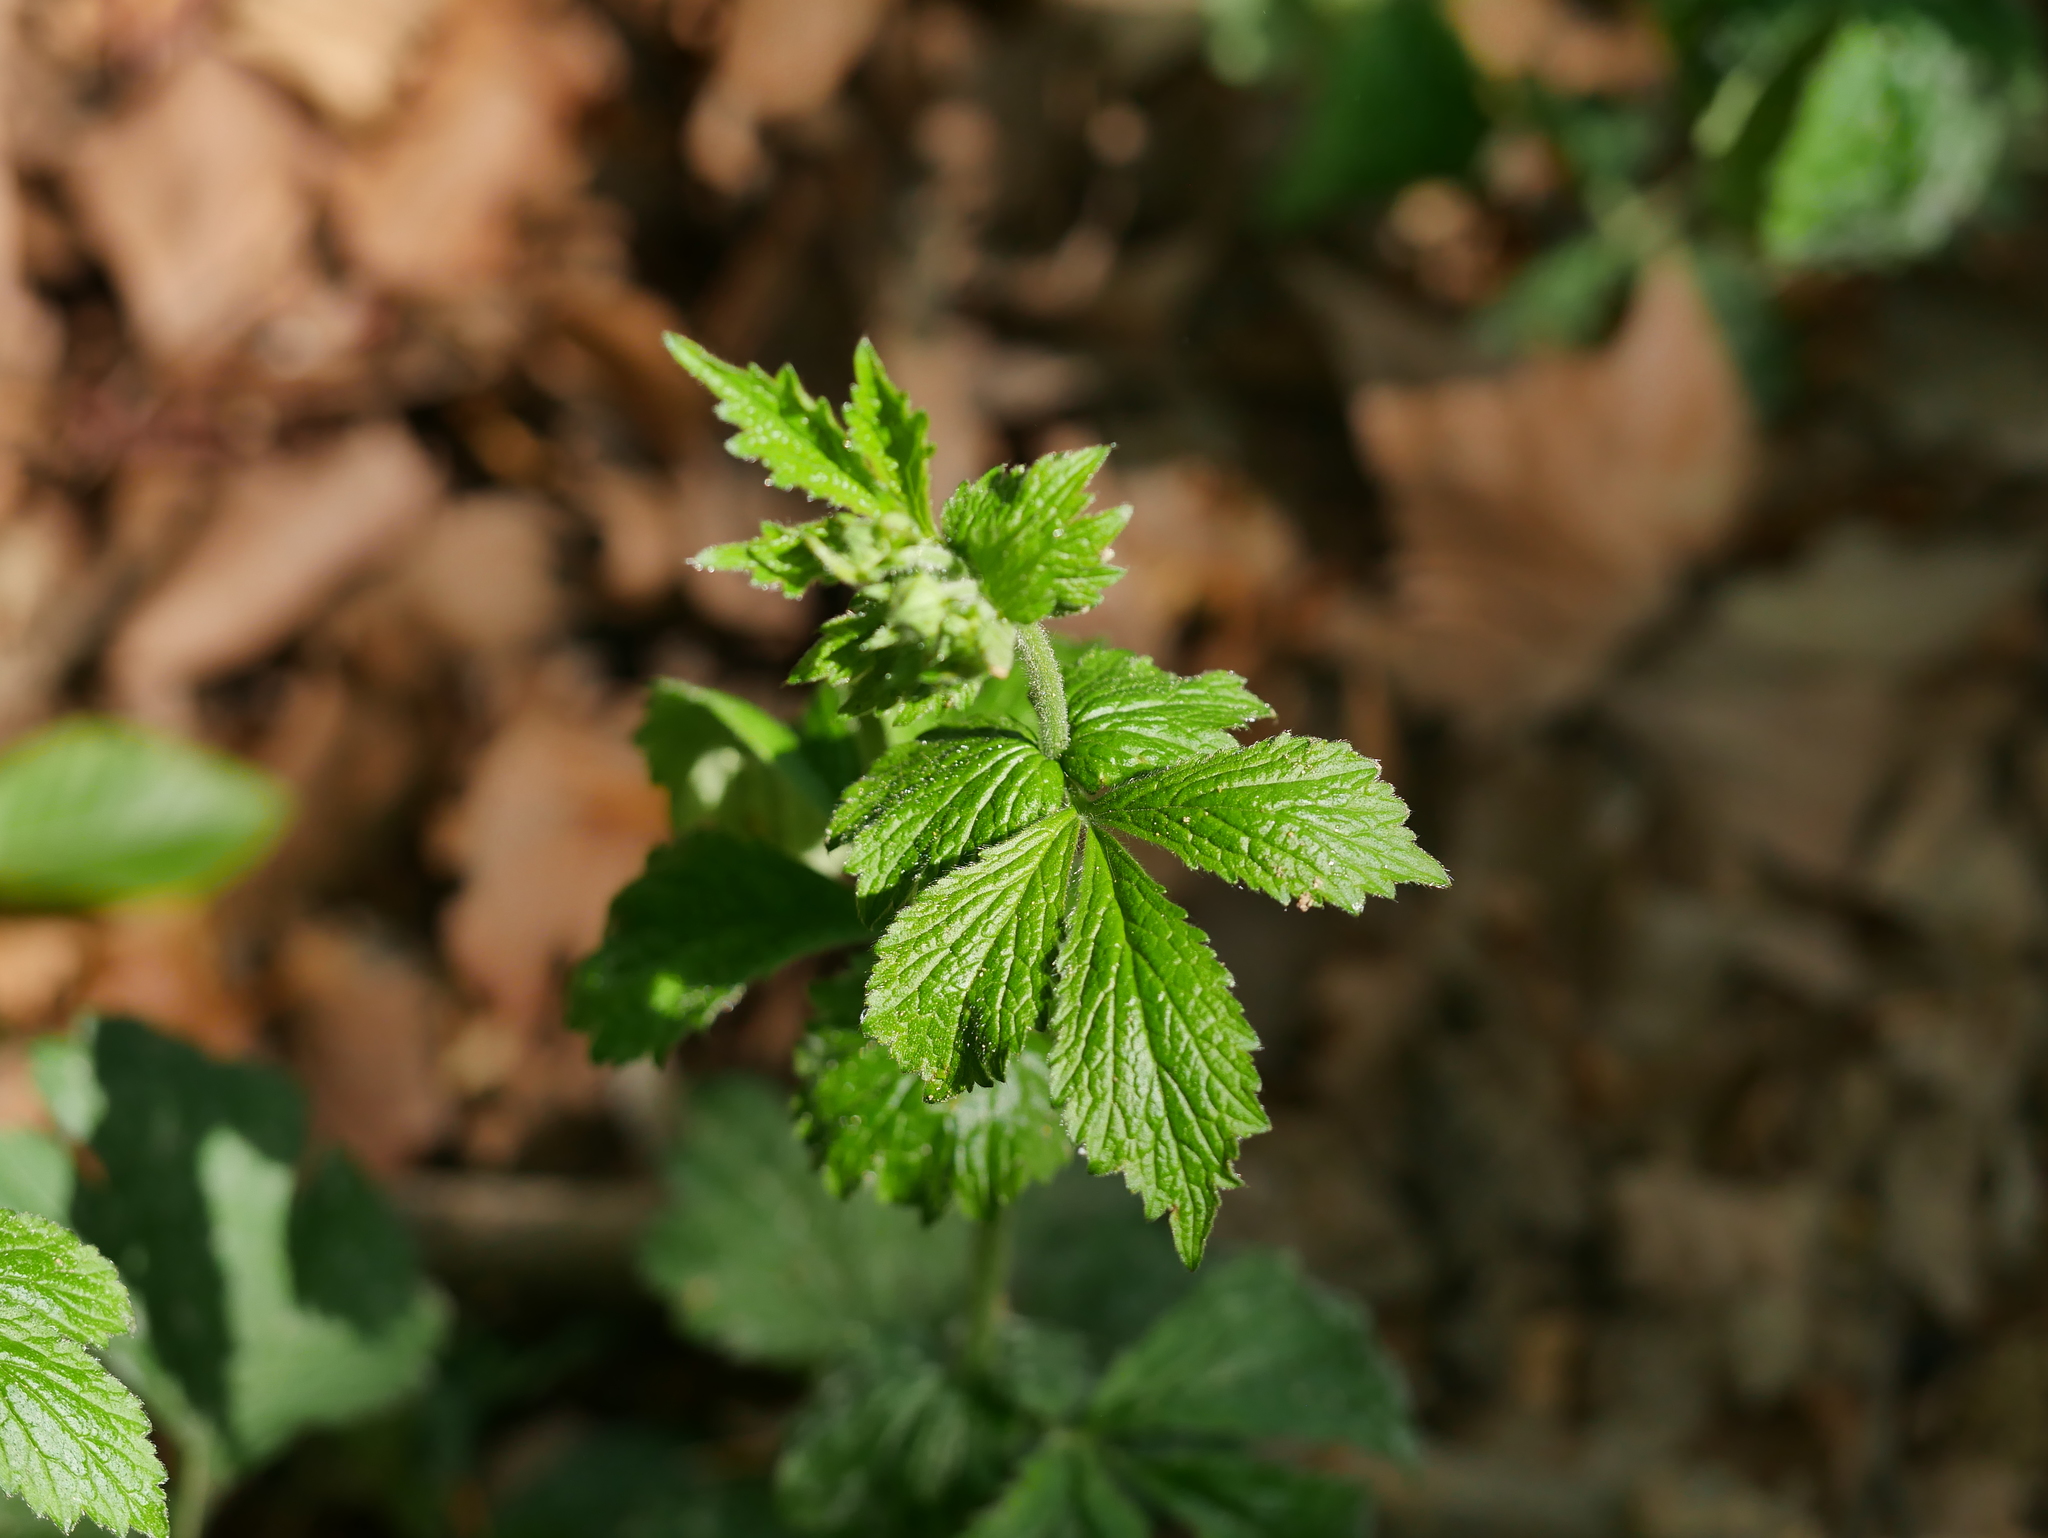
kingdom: Plantae
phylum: Tracheophyta
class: Magnoliopsida
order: Rosales
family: Rosaceae
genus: Geum
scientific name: Geum urbanum
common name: Wood avens
